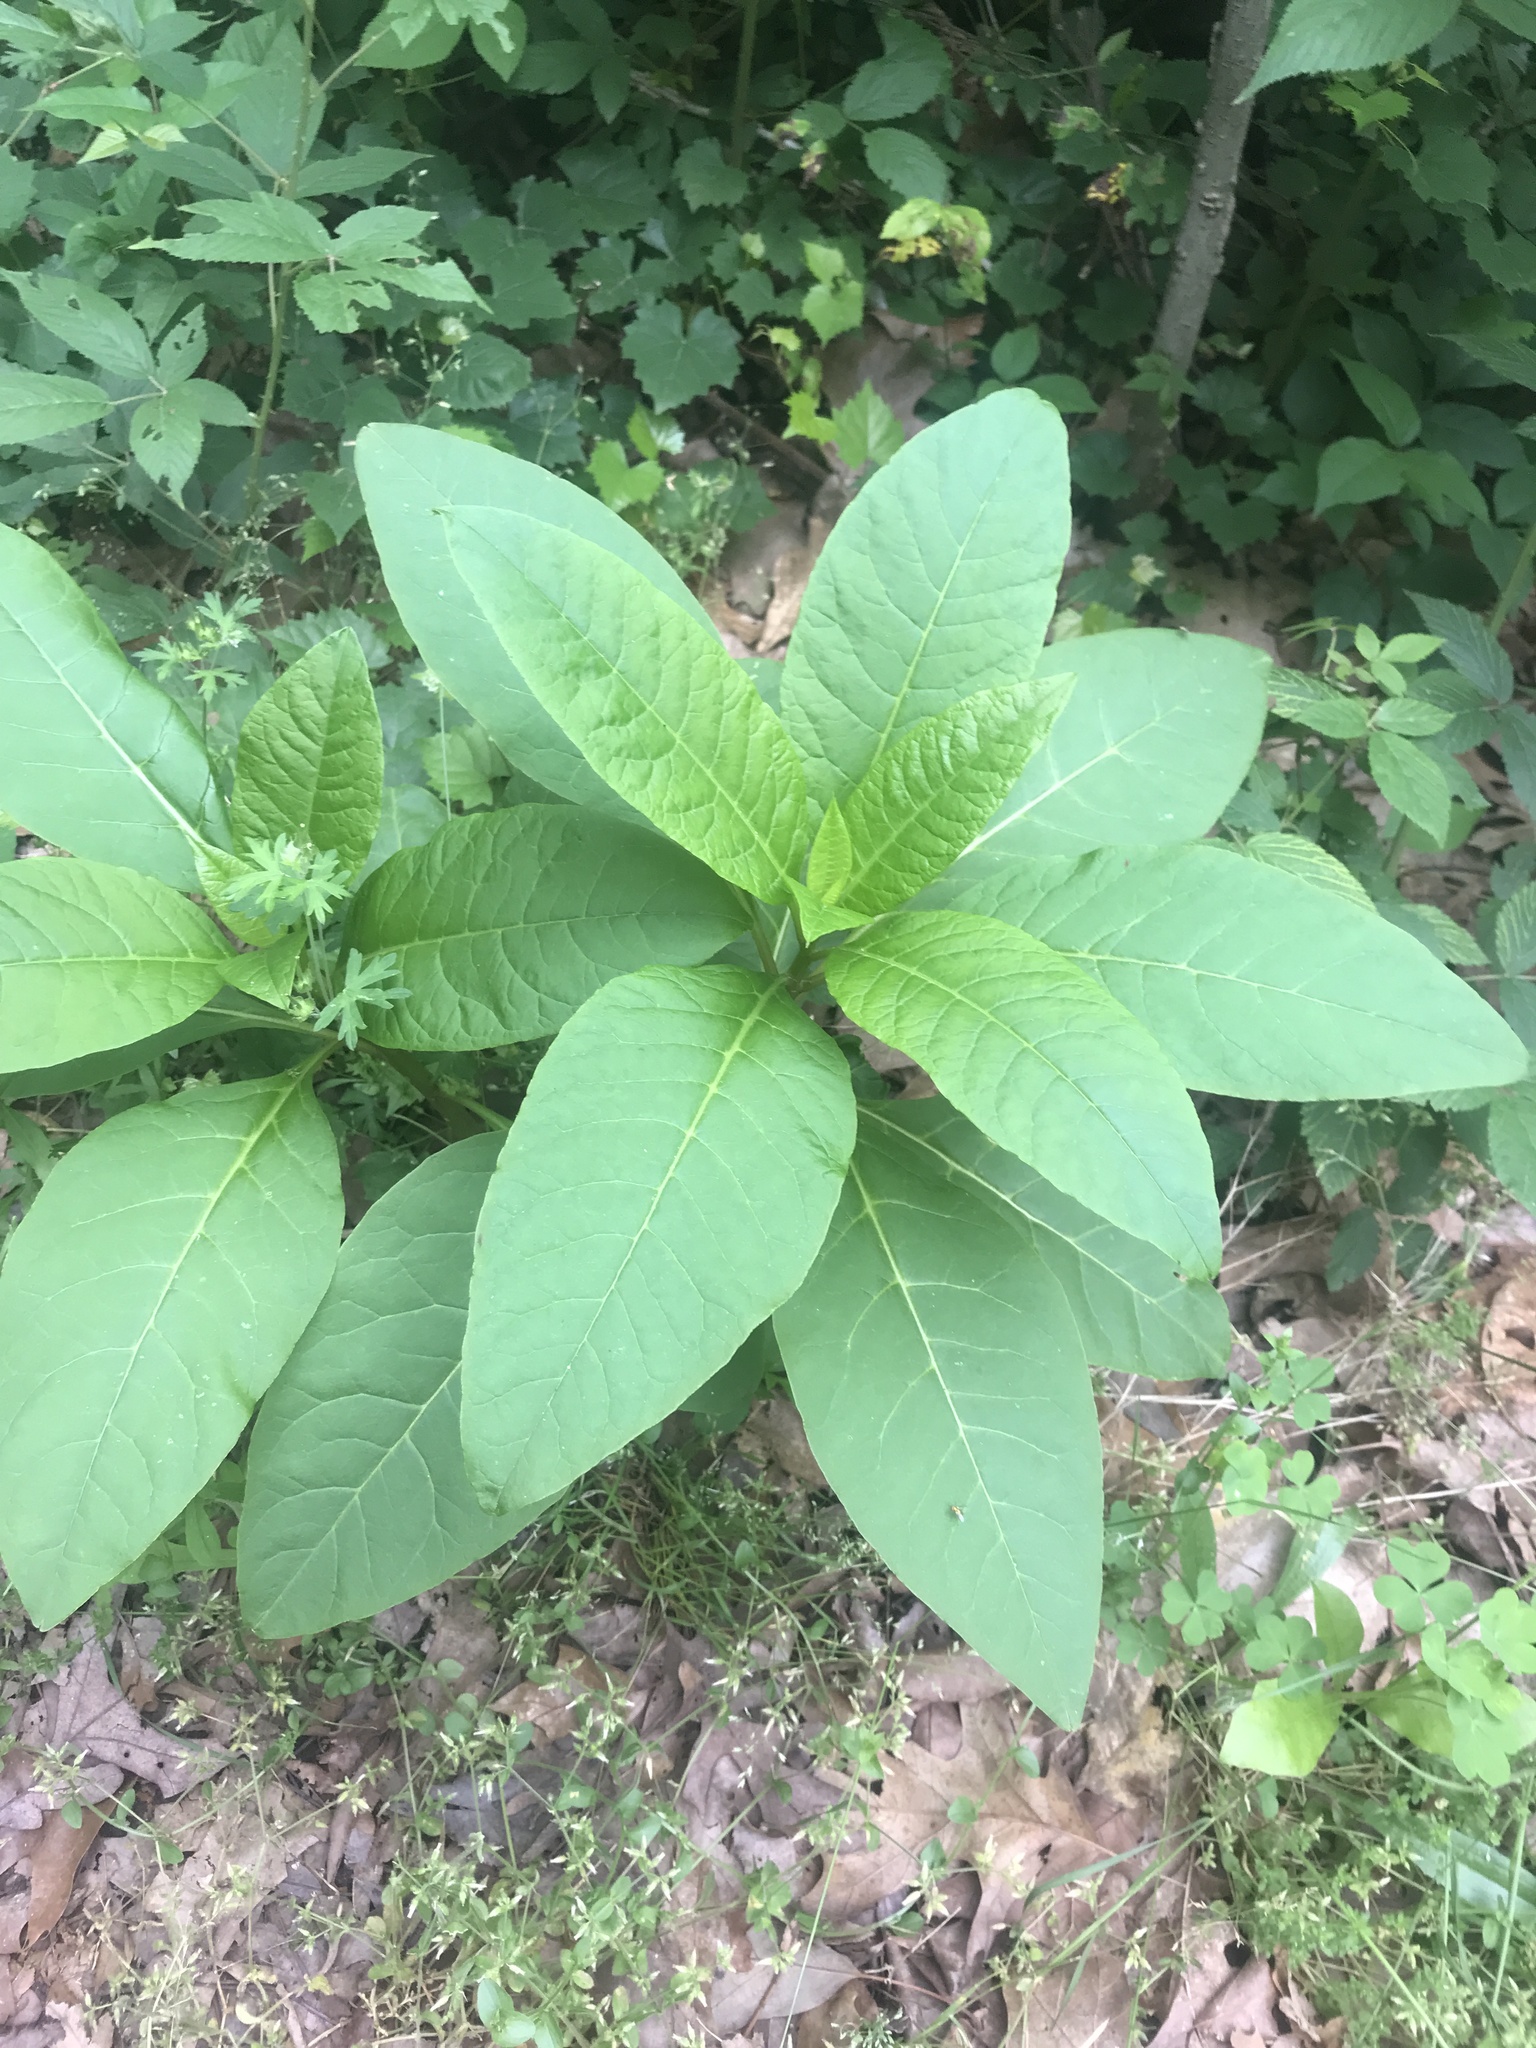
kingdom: Plantae
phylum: Tracheophyta
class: Magnoliopsida
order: Caryophyllales
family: Phytolaccaceae
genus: Phytolacca
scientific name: Phytolacca americana
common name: American pokeweed
